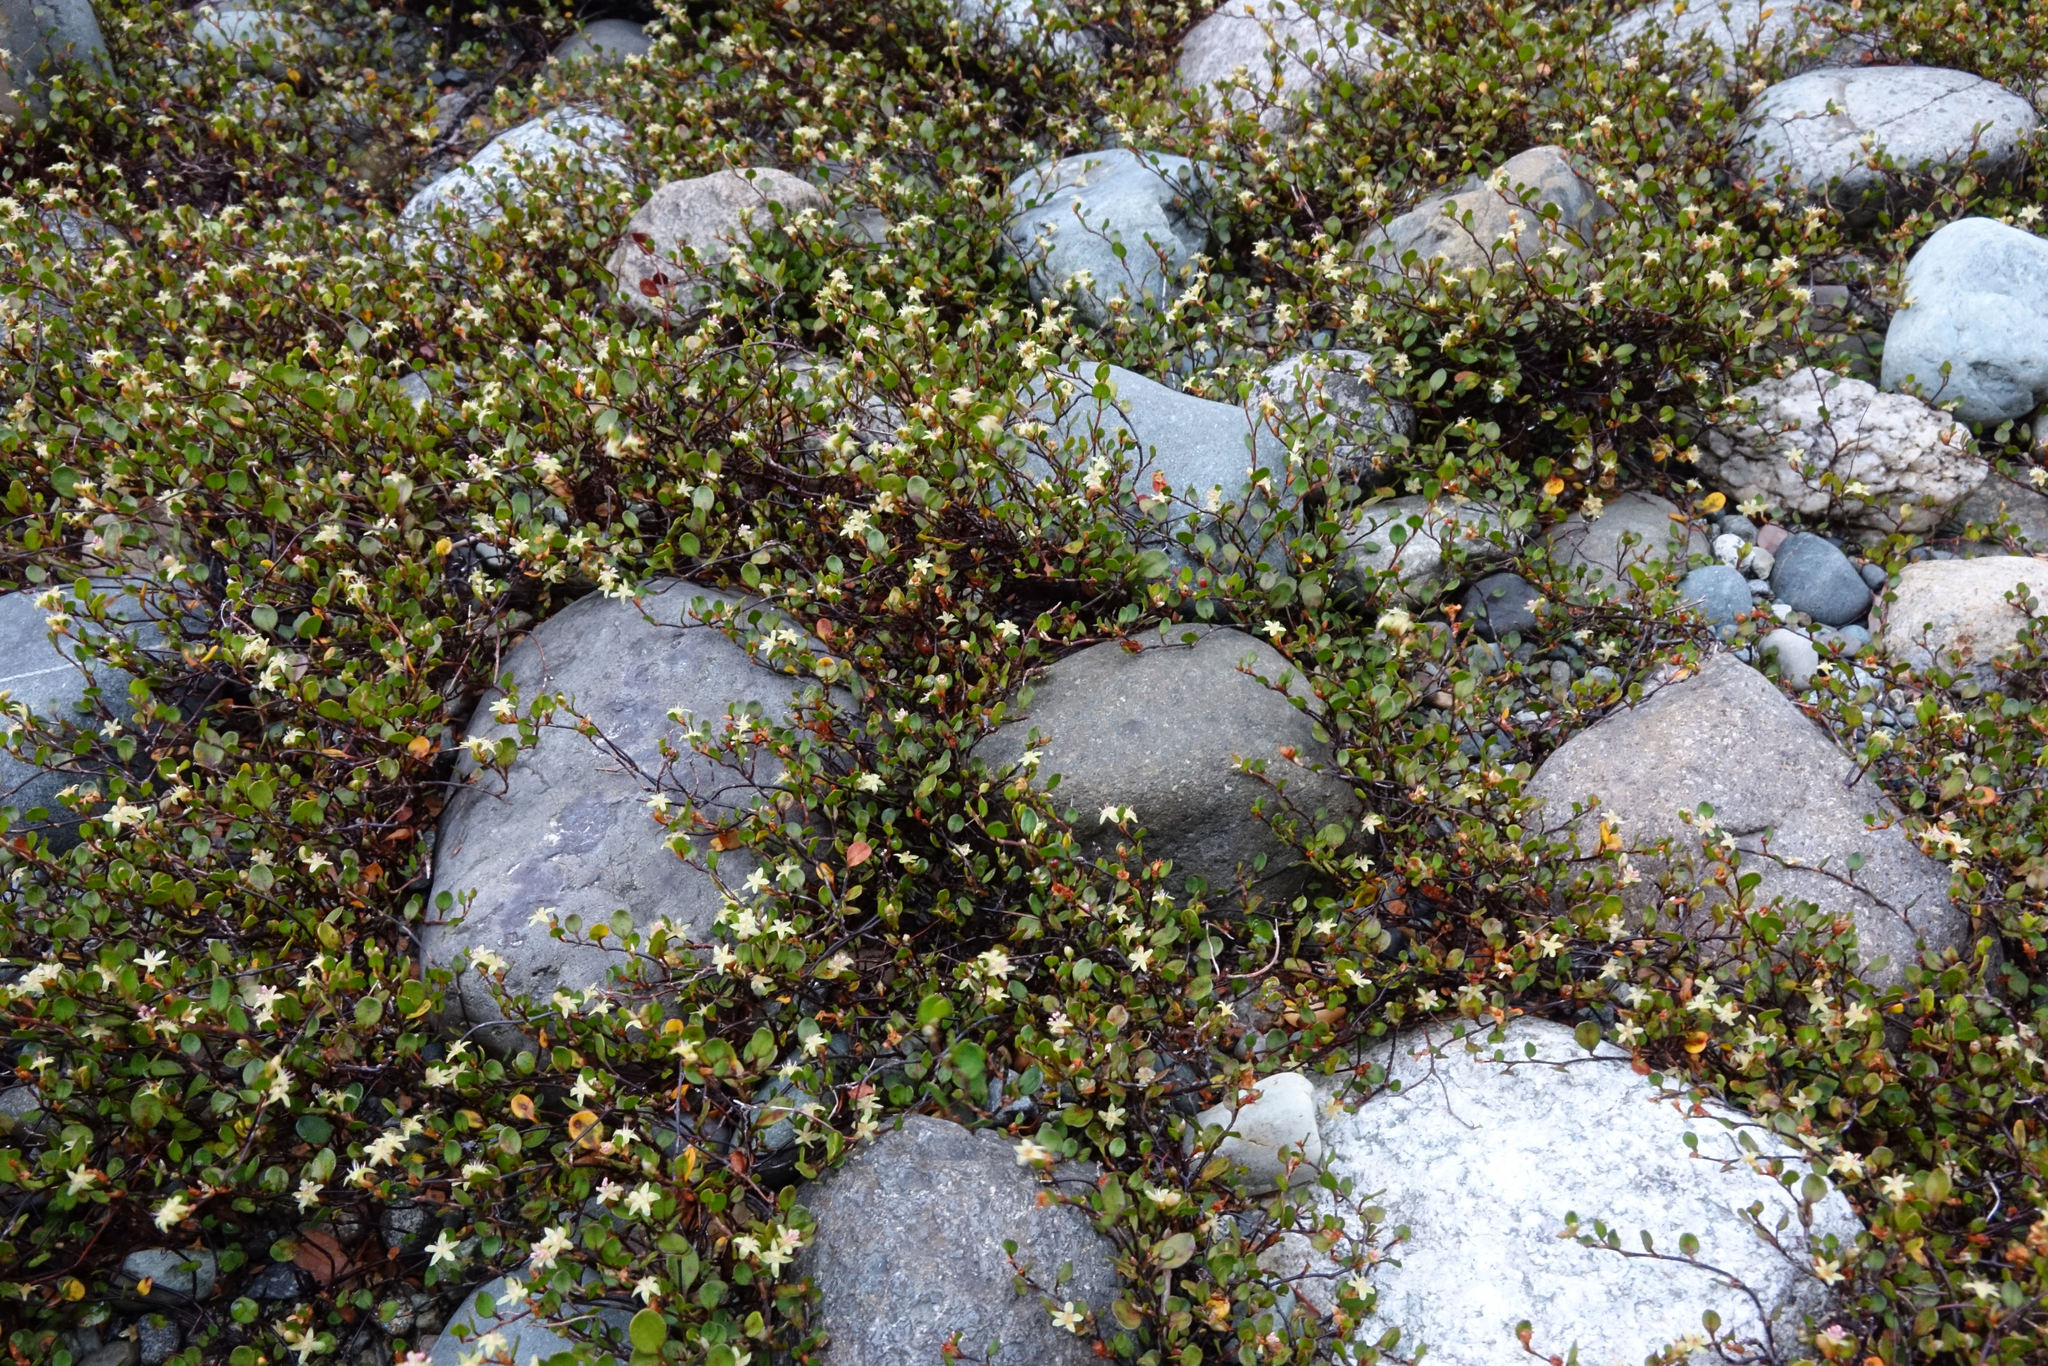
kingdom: Plantae
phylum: Tracheophyta
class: Magnoliopsida
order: Caryophyllales
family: Polygonaceae
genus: Muehlenbeckia
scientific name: Muehlenbeckia axillaris
